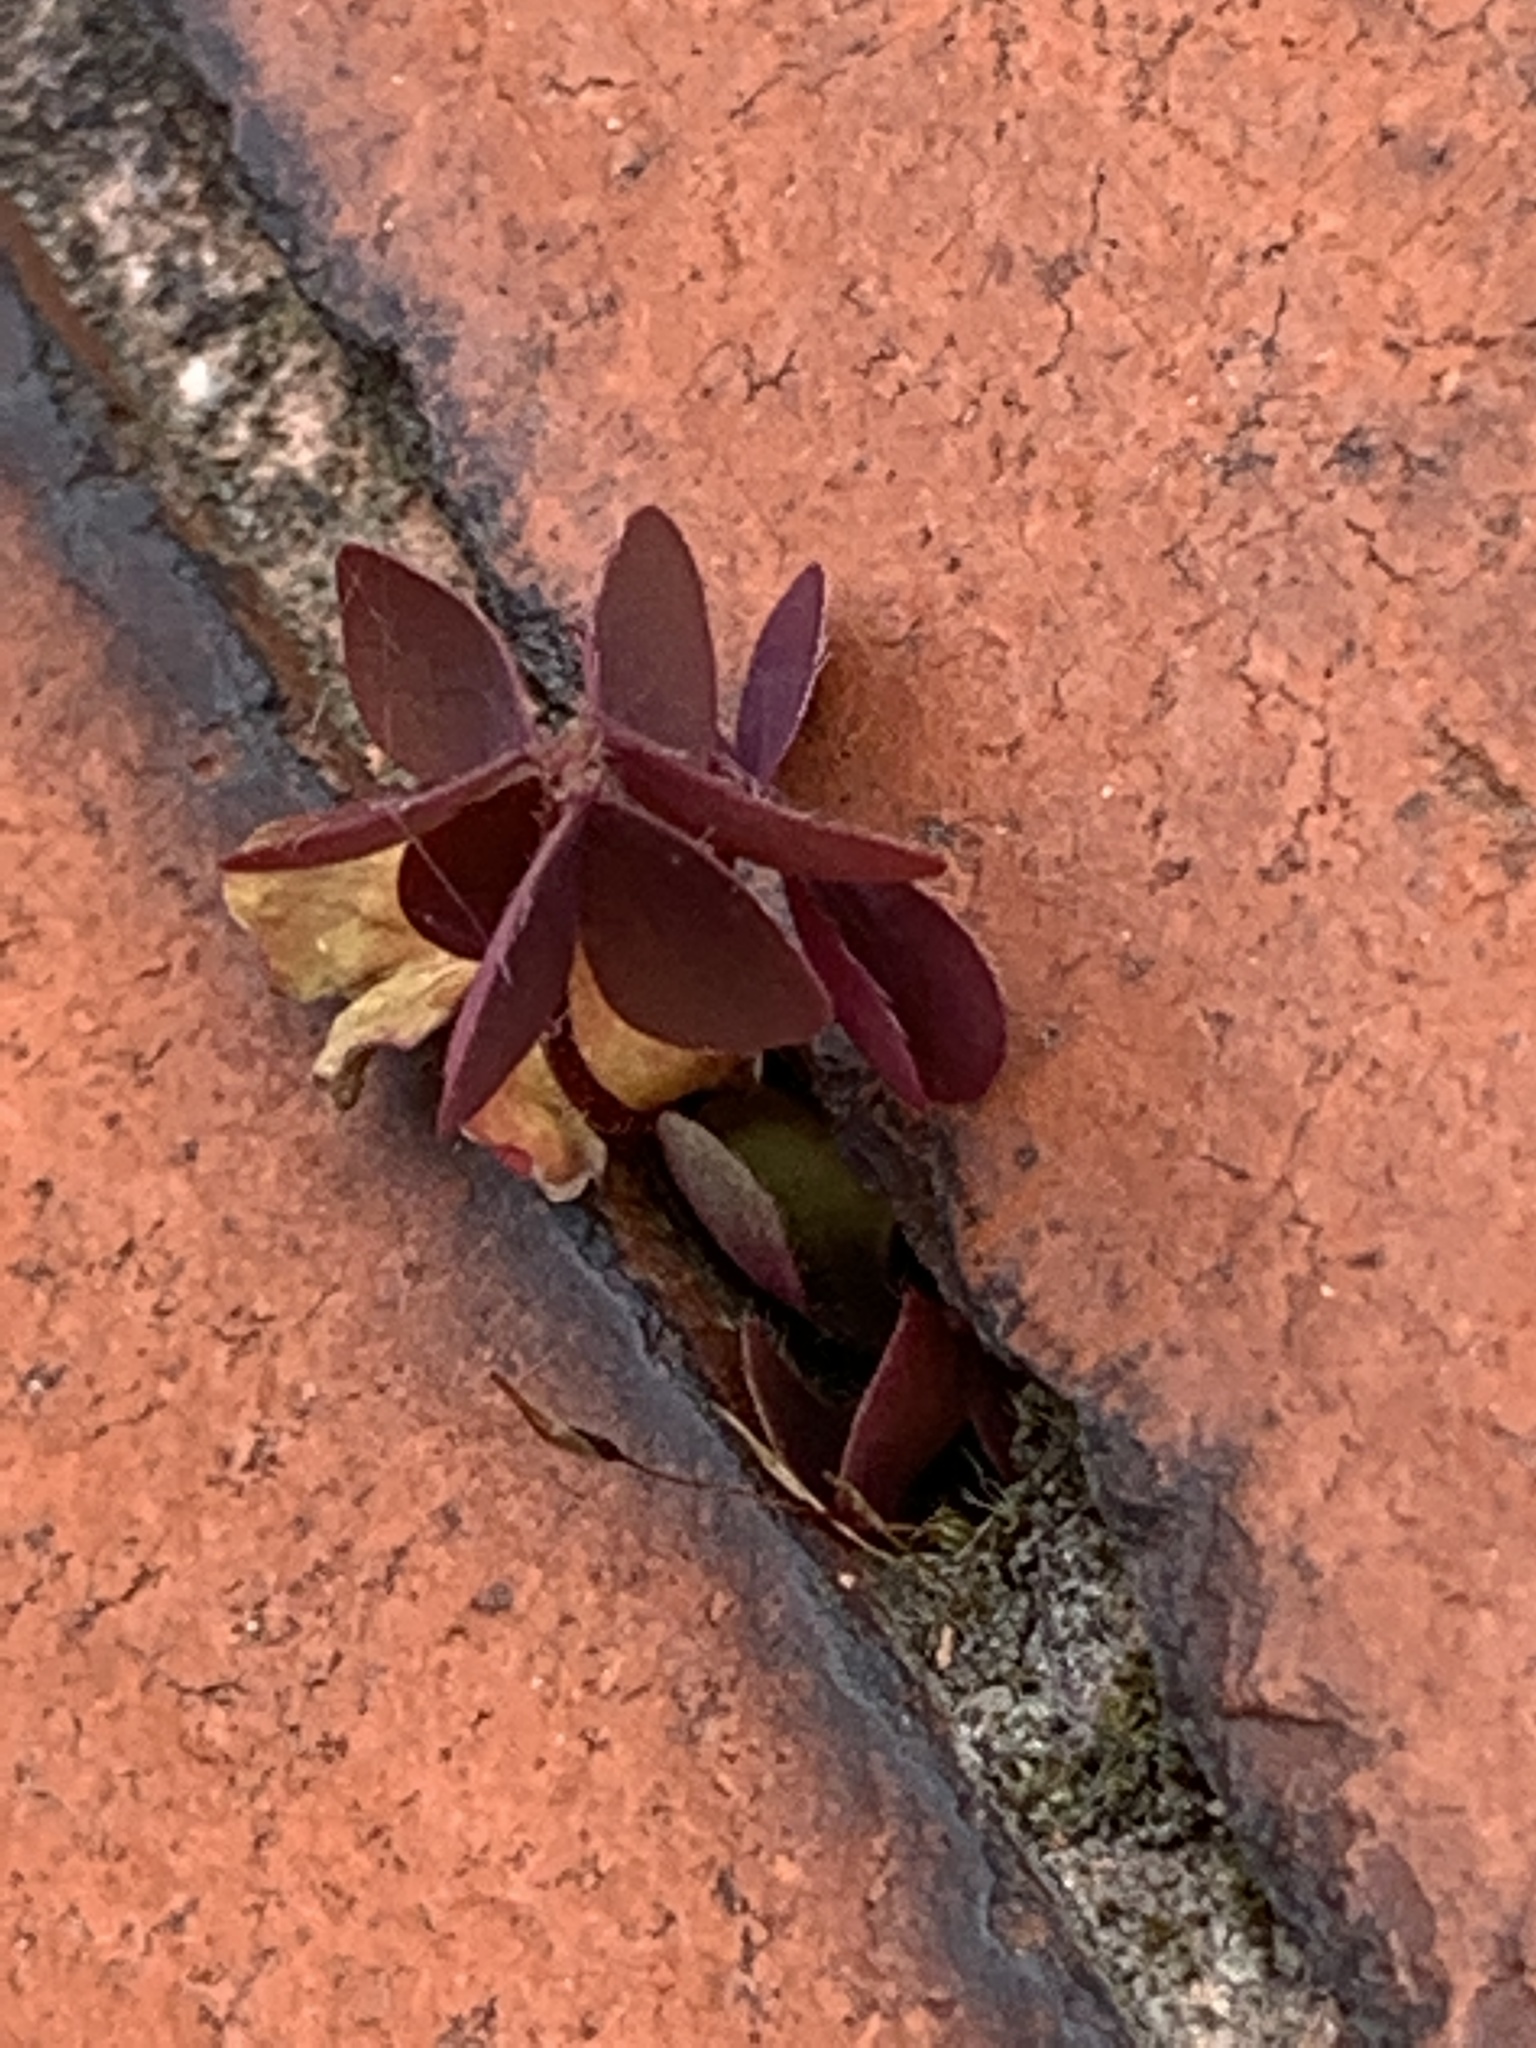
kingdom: Plantae
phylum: Tracheophyta
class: Magnoliopsida
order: Oxalidales
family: Oxalidaceae
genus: Oxalis
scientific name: Oxalis corniculata
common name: Procumbent yellow-sorrel
